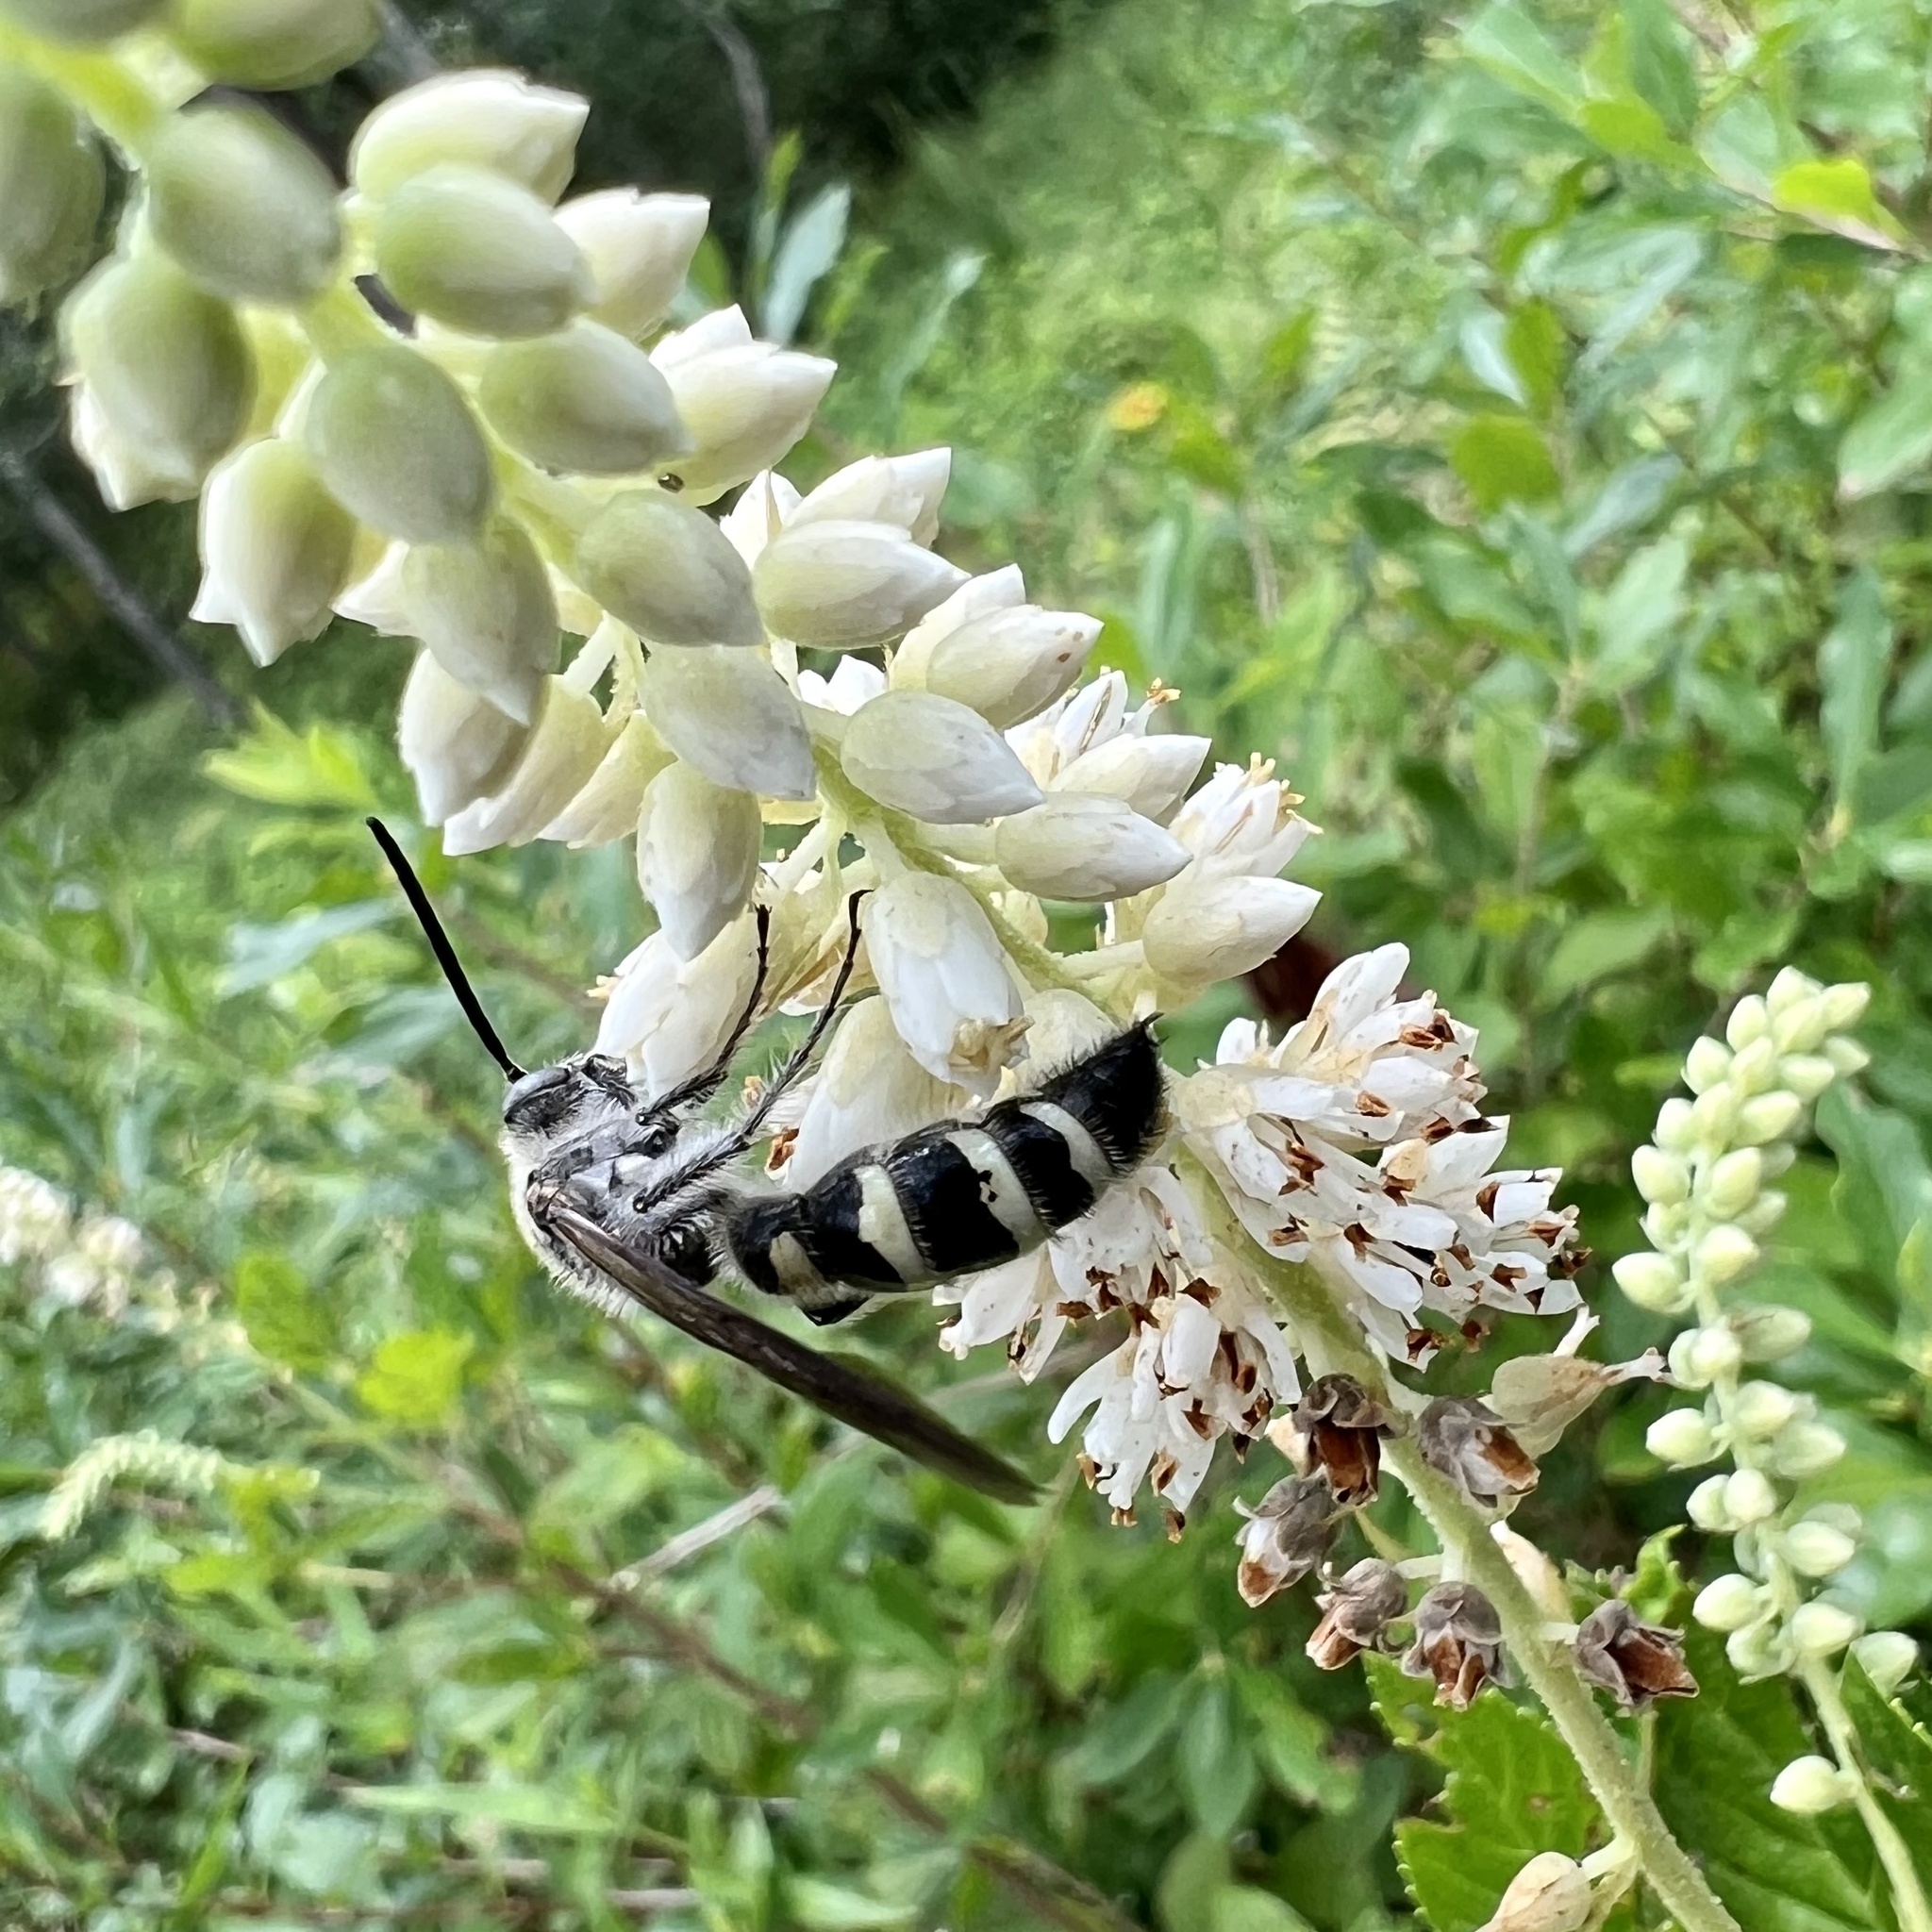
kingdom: Animalia
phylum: Arthropoda
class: Insecta
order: Hymenoptera
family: Scoliidae
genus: Dielis
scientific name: Dielis
